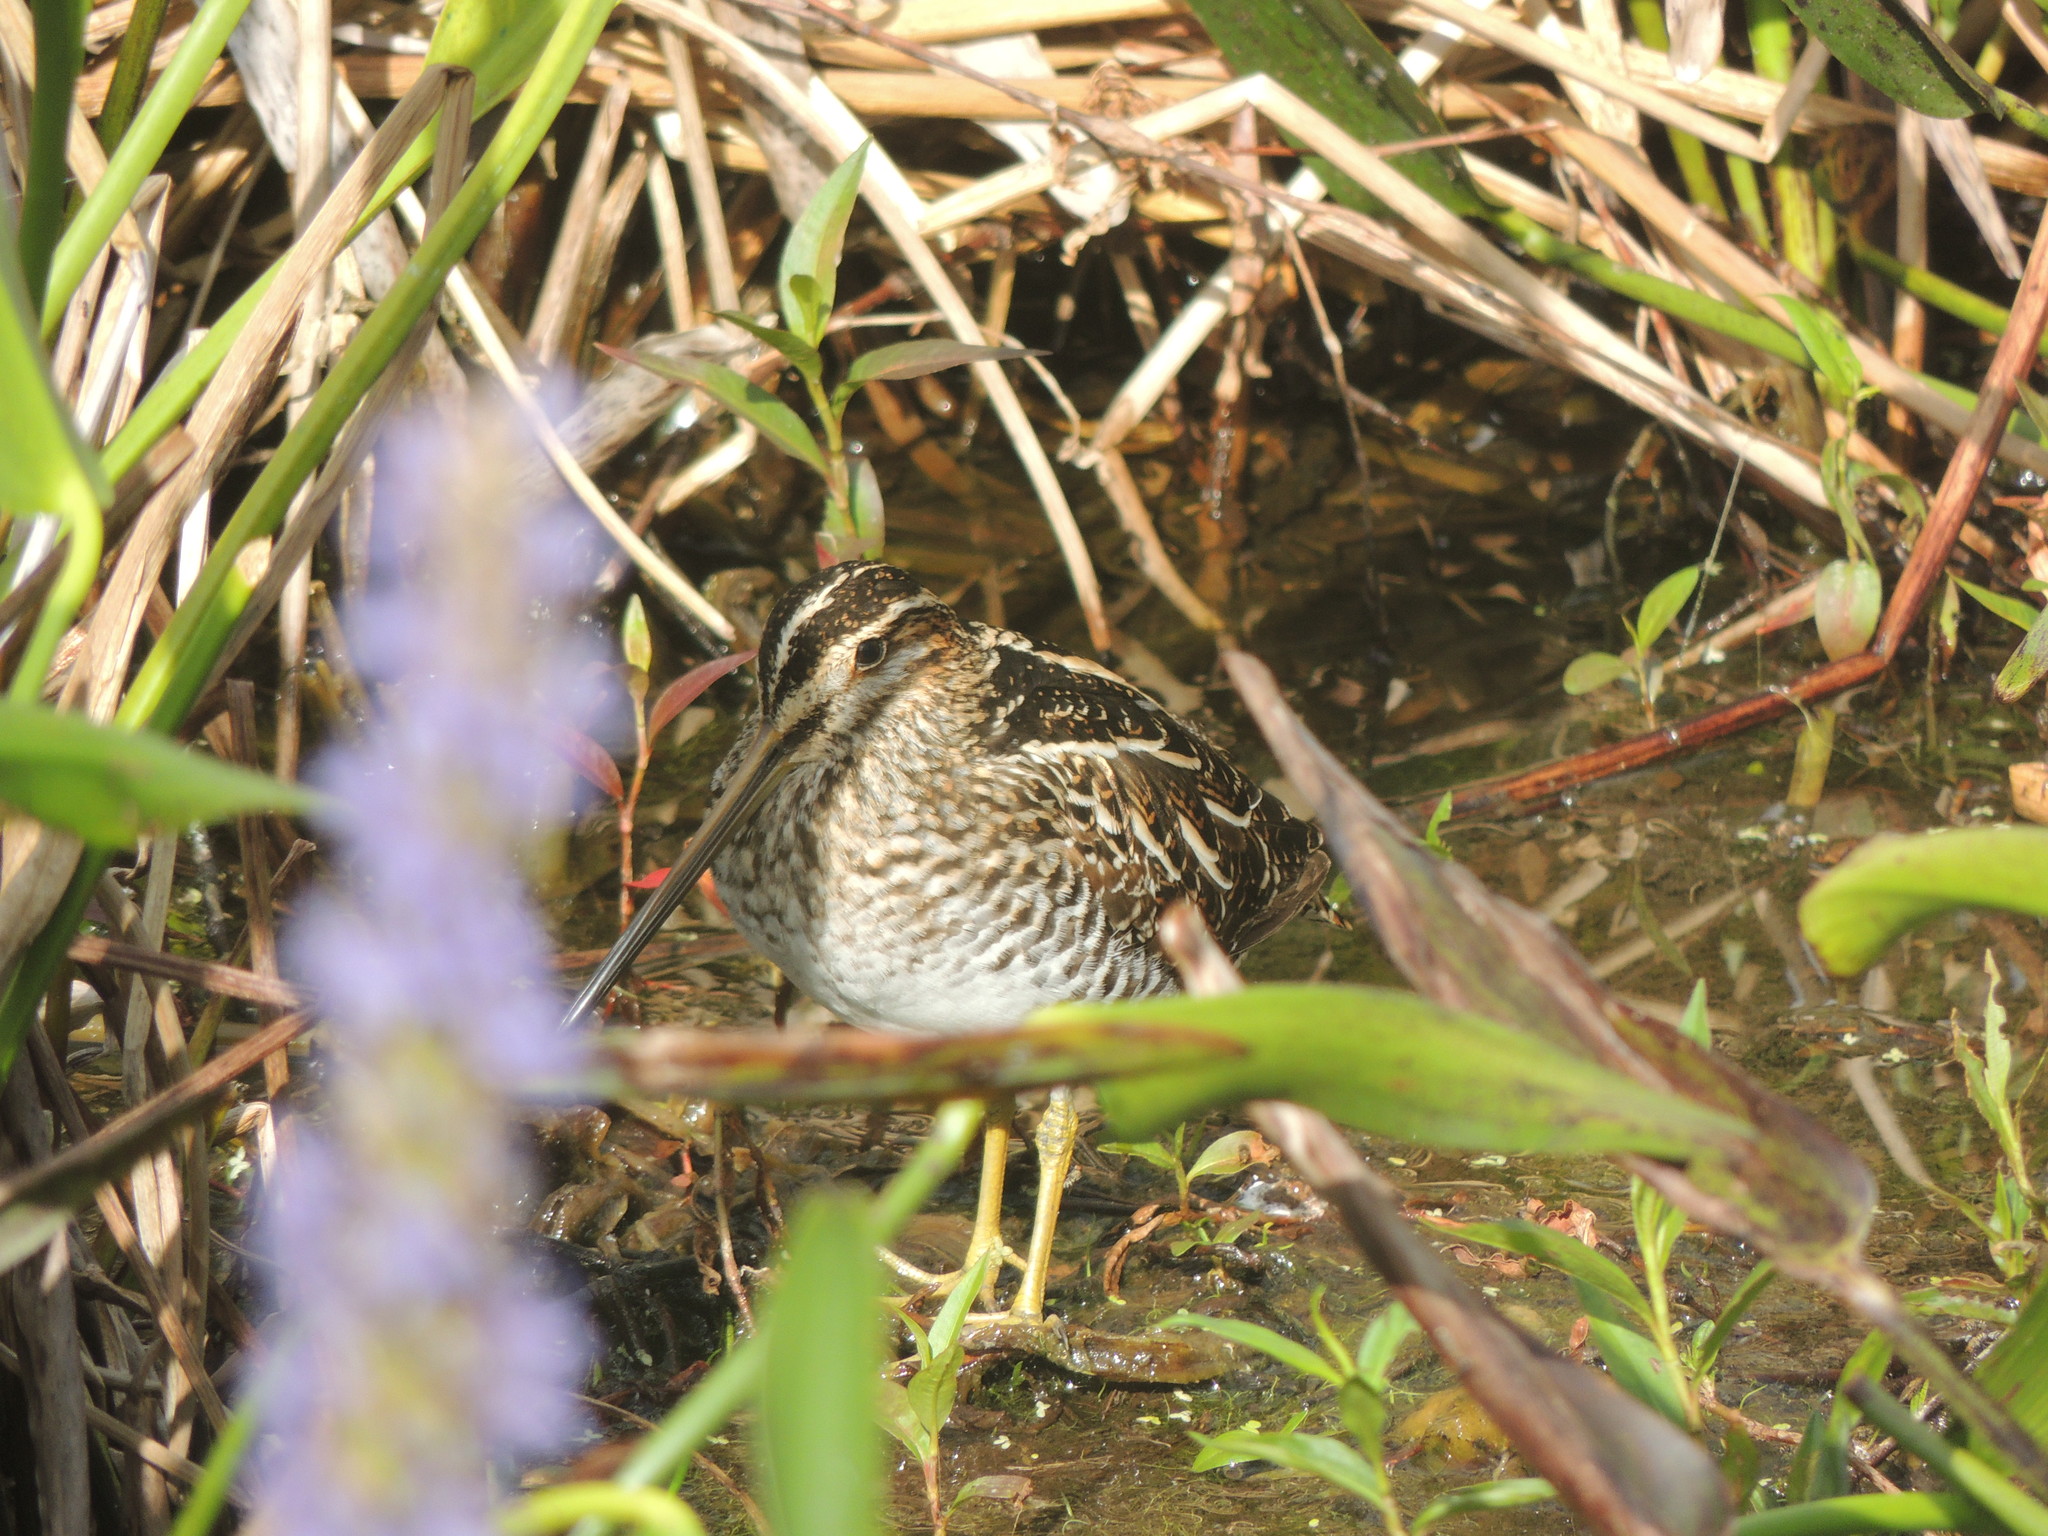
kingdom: Animalia
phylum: Chordata
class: Aves
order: Charadriiformes
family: Scolopacidae
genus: Gallinago
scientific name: Gallinago delicata
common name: Wilson's snipe
